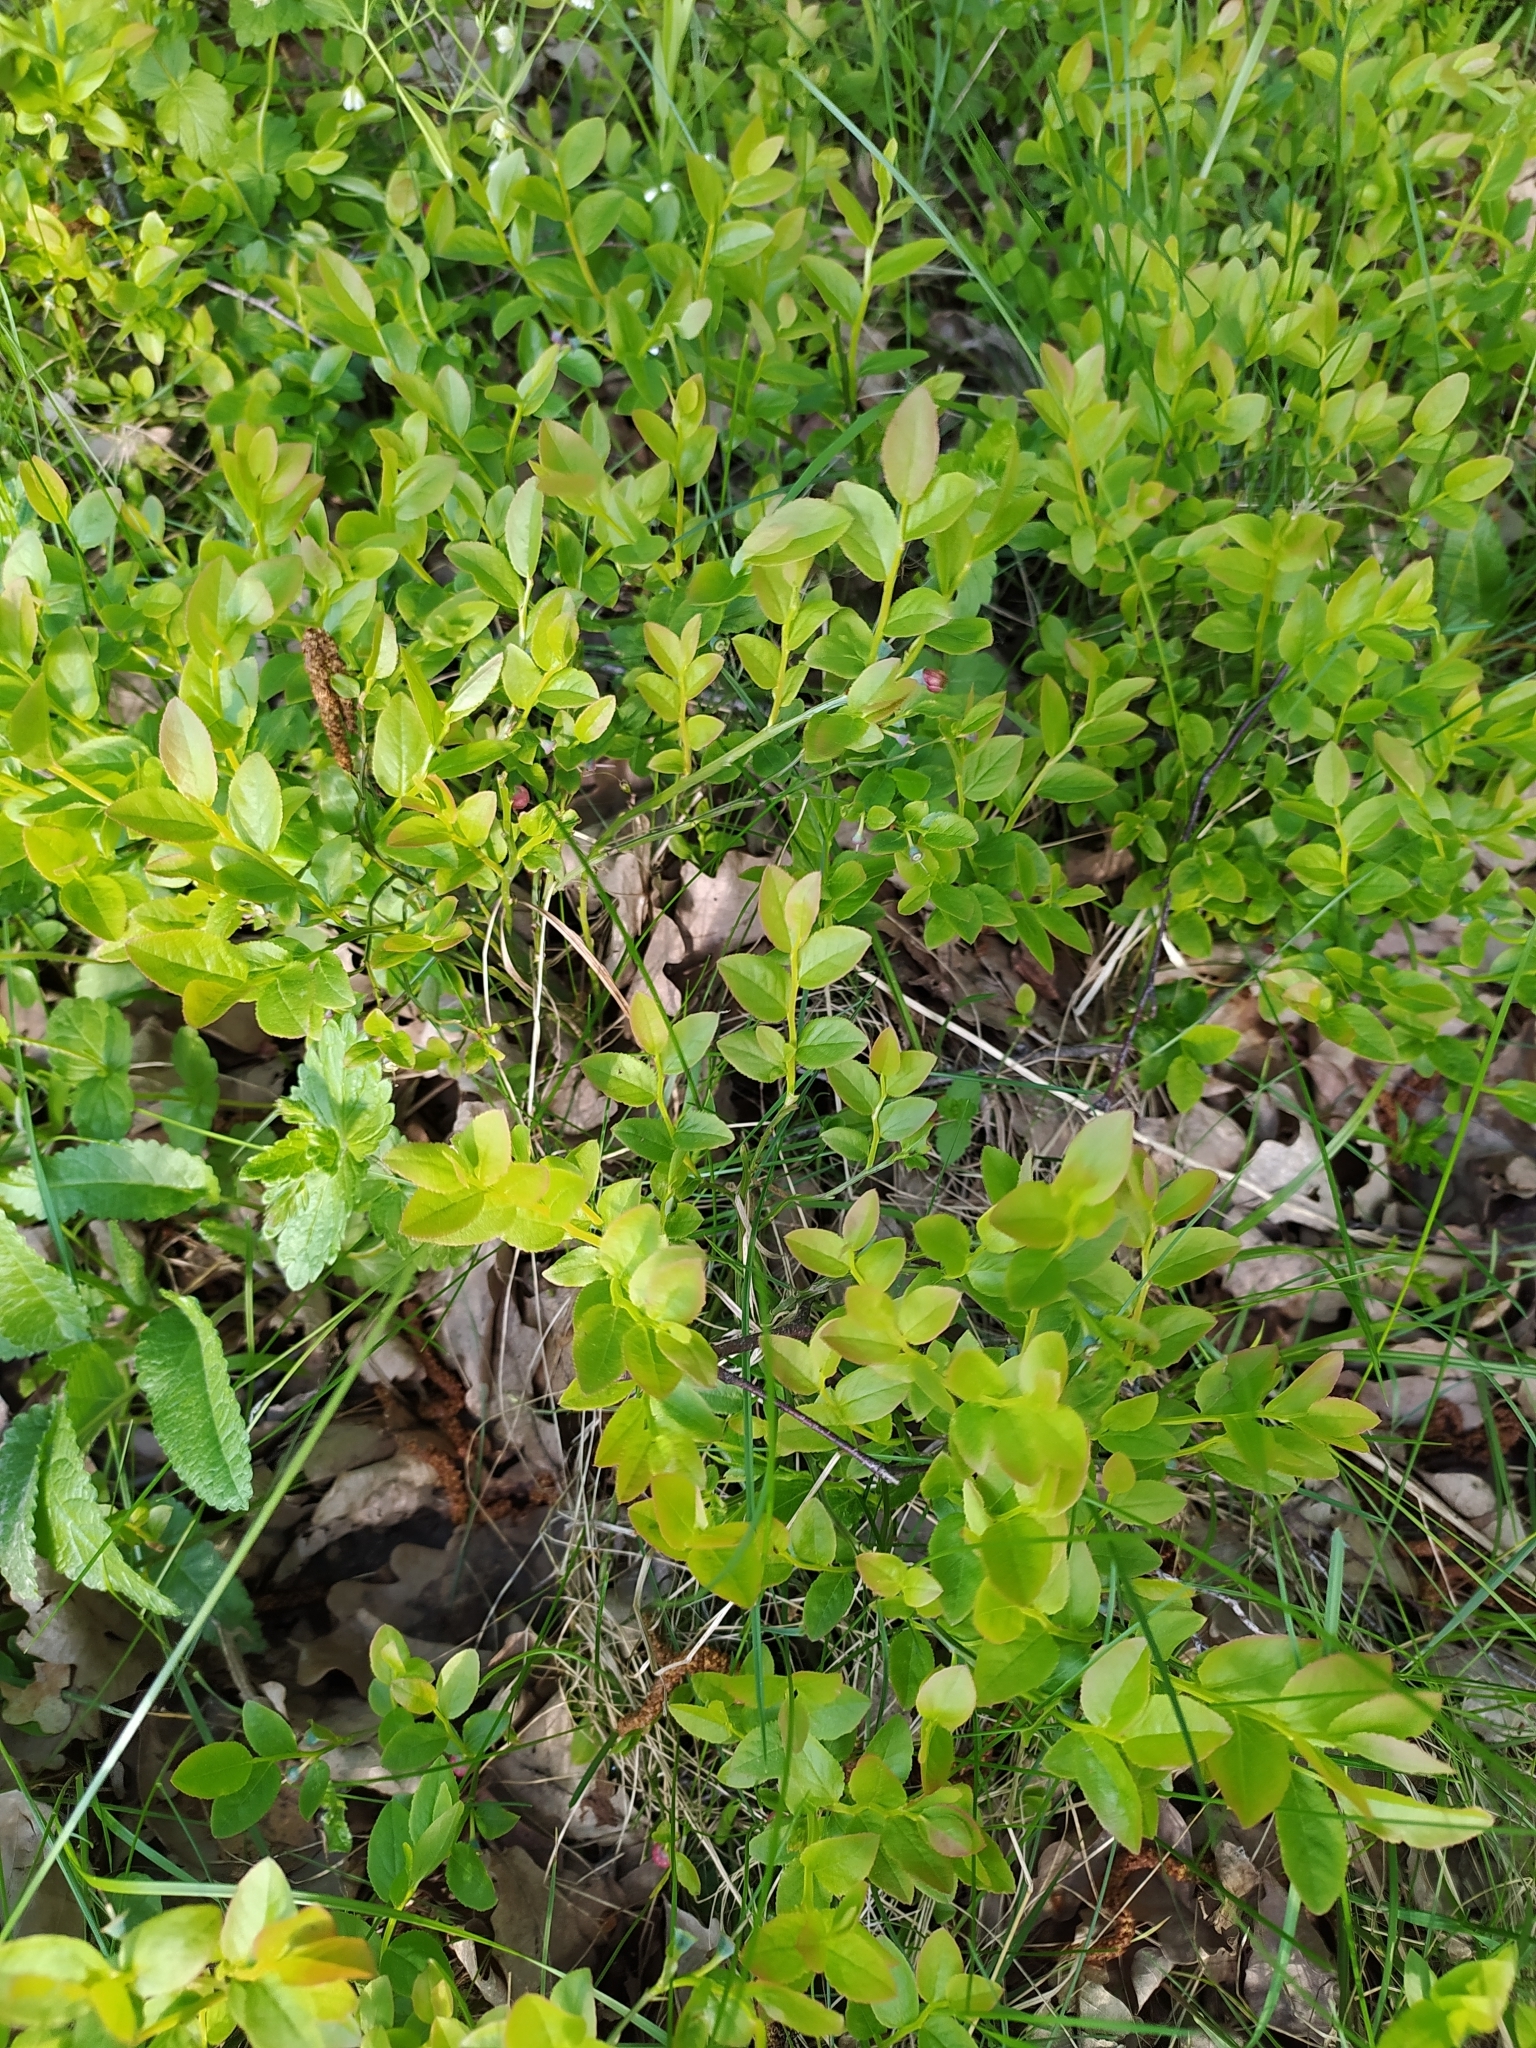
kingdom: Plantae
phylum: Tracheophyta
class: Magnoliopsida
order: Ericales
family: Ericaceae
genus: Vaccinium
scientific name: Vaccinium myrtillus
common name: Bilberry
